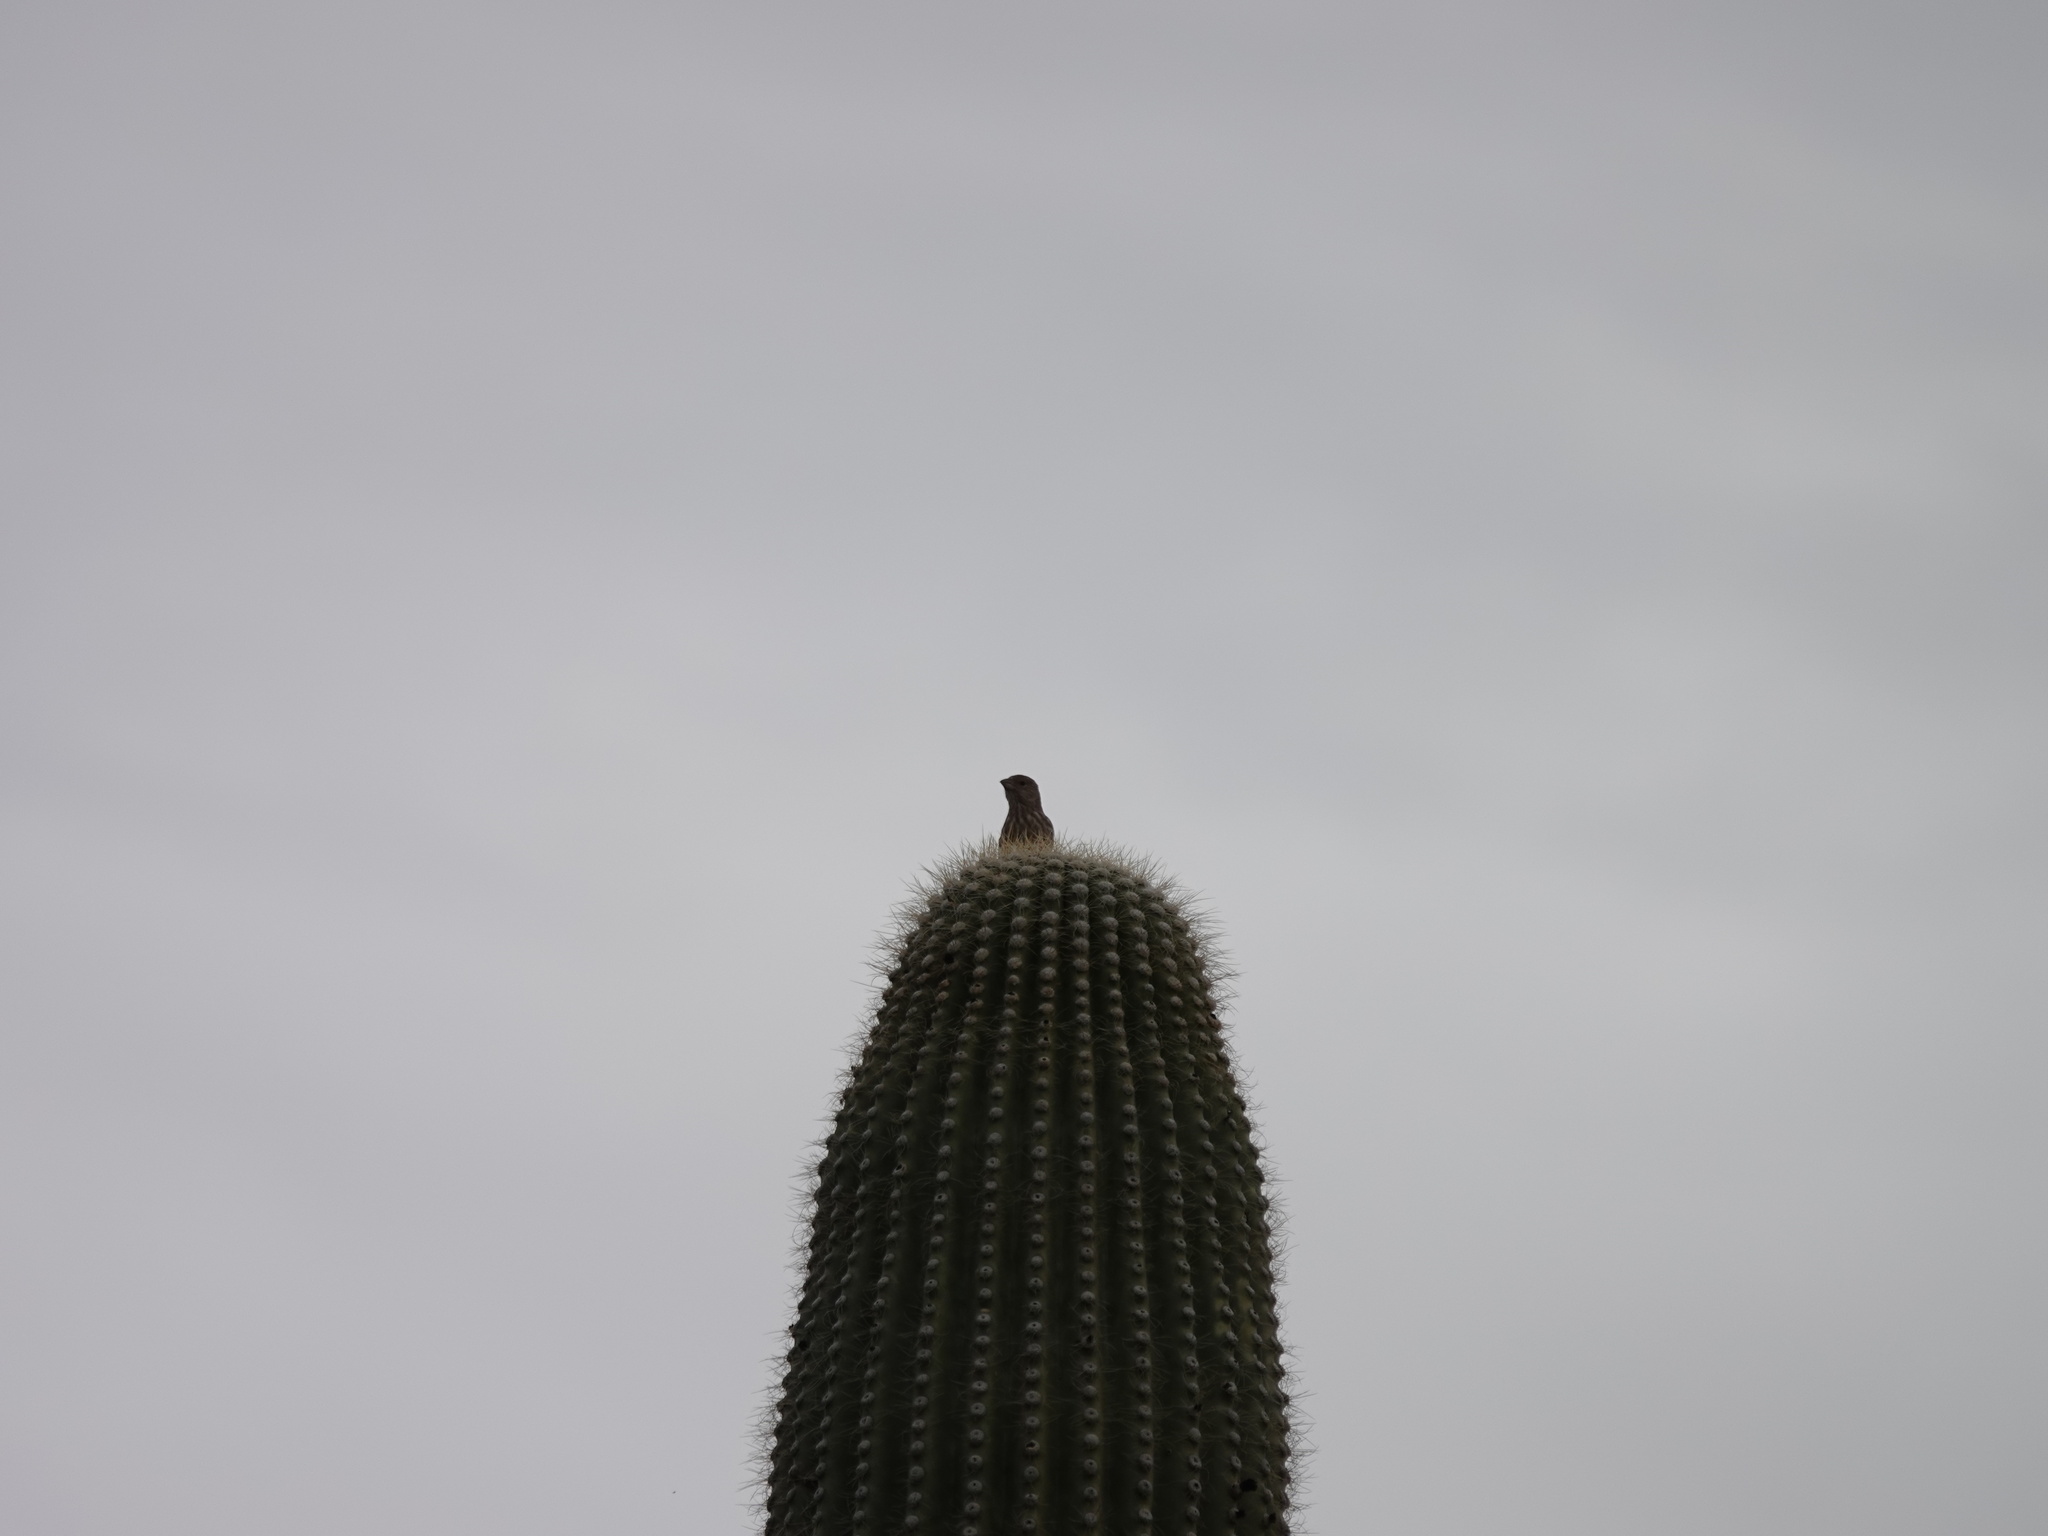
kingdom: Animalia
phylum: Chordata
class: Aves
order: Passeriformes
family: Fringillidae
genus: Haemorhous
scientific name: Haemorhous mexicanus
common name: House finch
